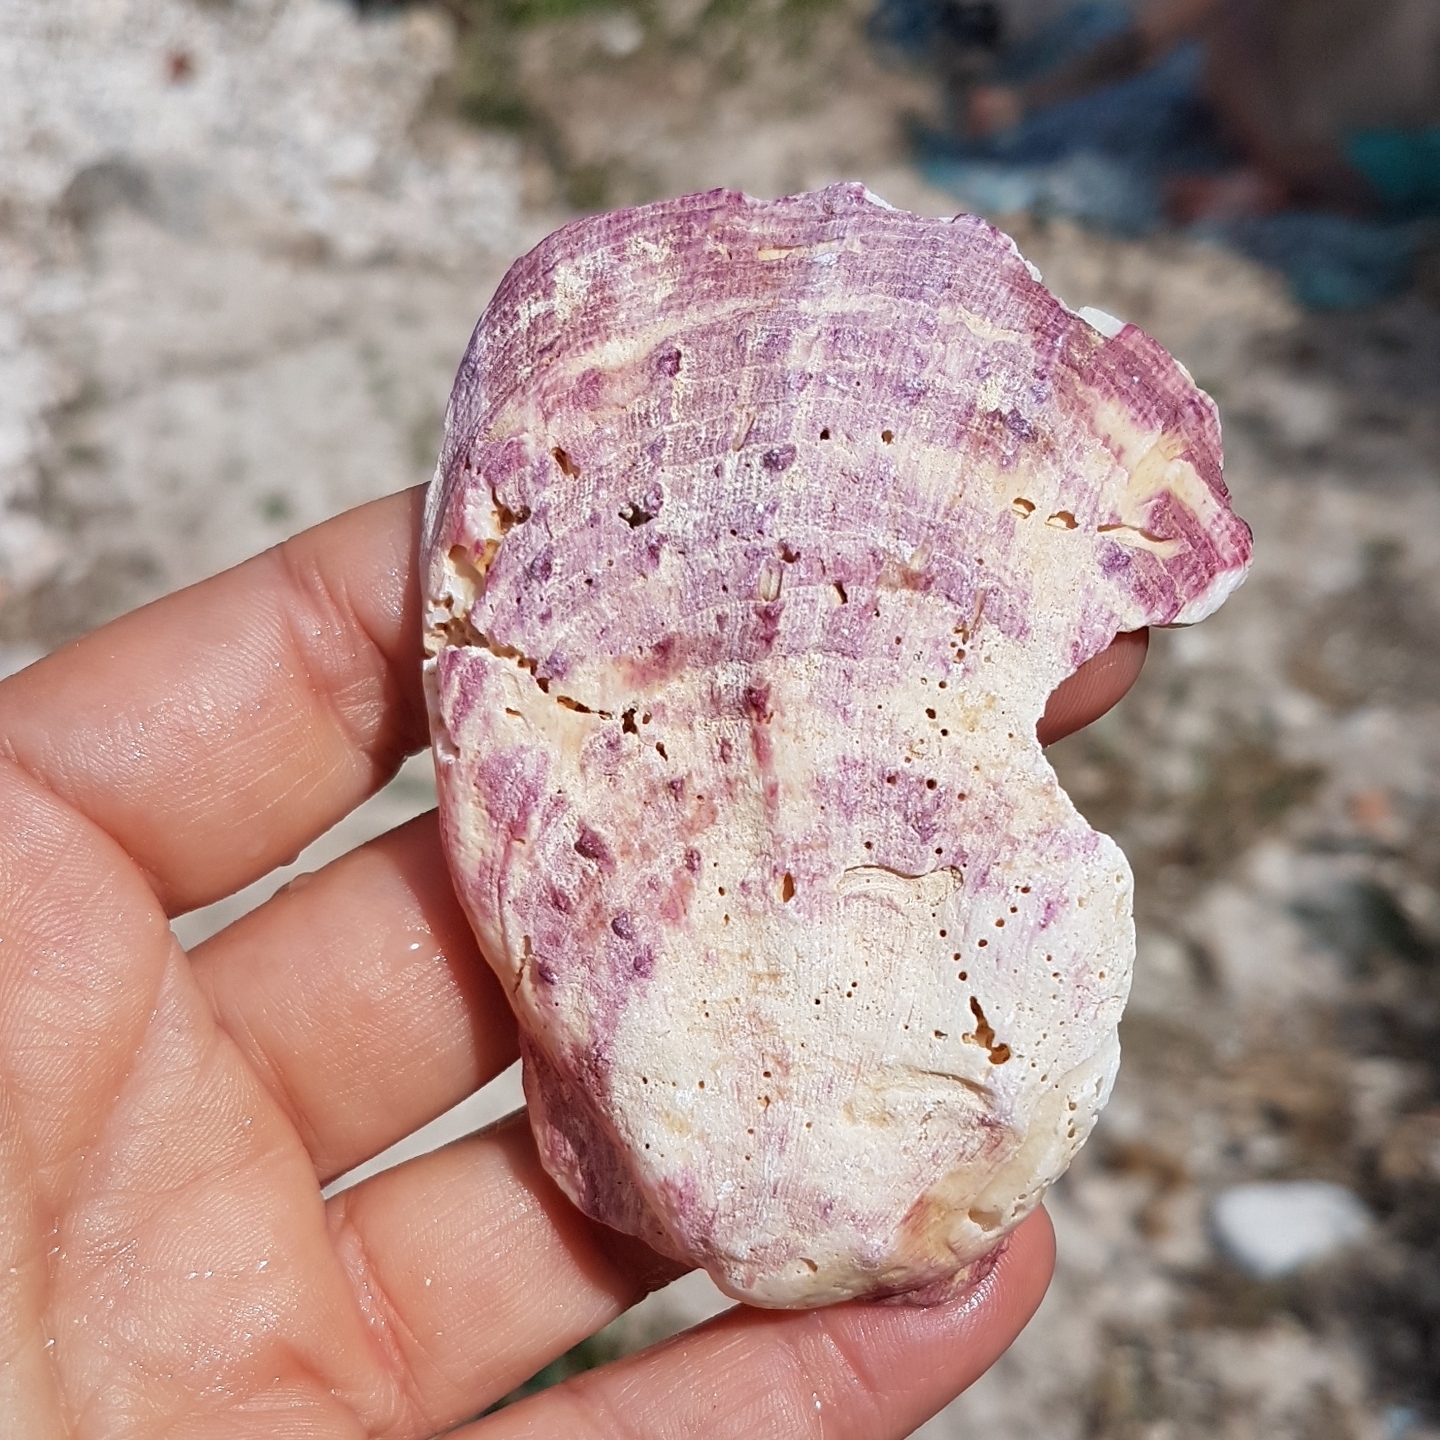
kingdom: Animalia
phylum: Mollusca
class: Bivalvia
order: Pectinida
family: Spondylidae
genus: Spondylus
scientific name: Spondylus gaederopus
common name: European thorny oyster
